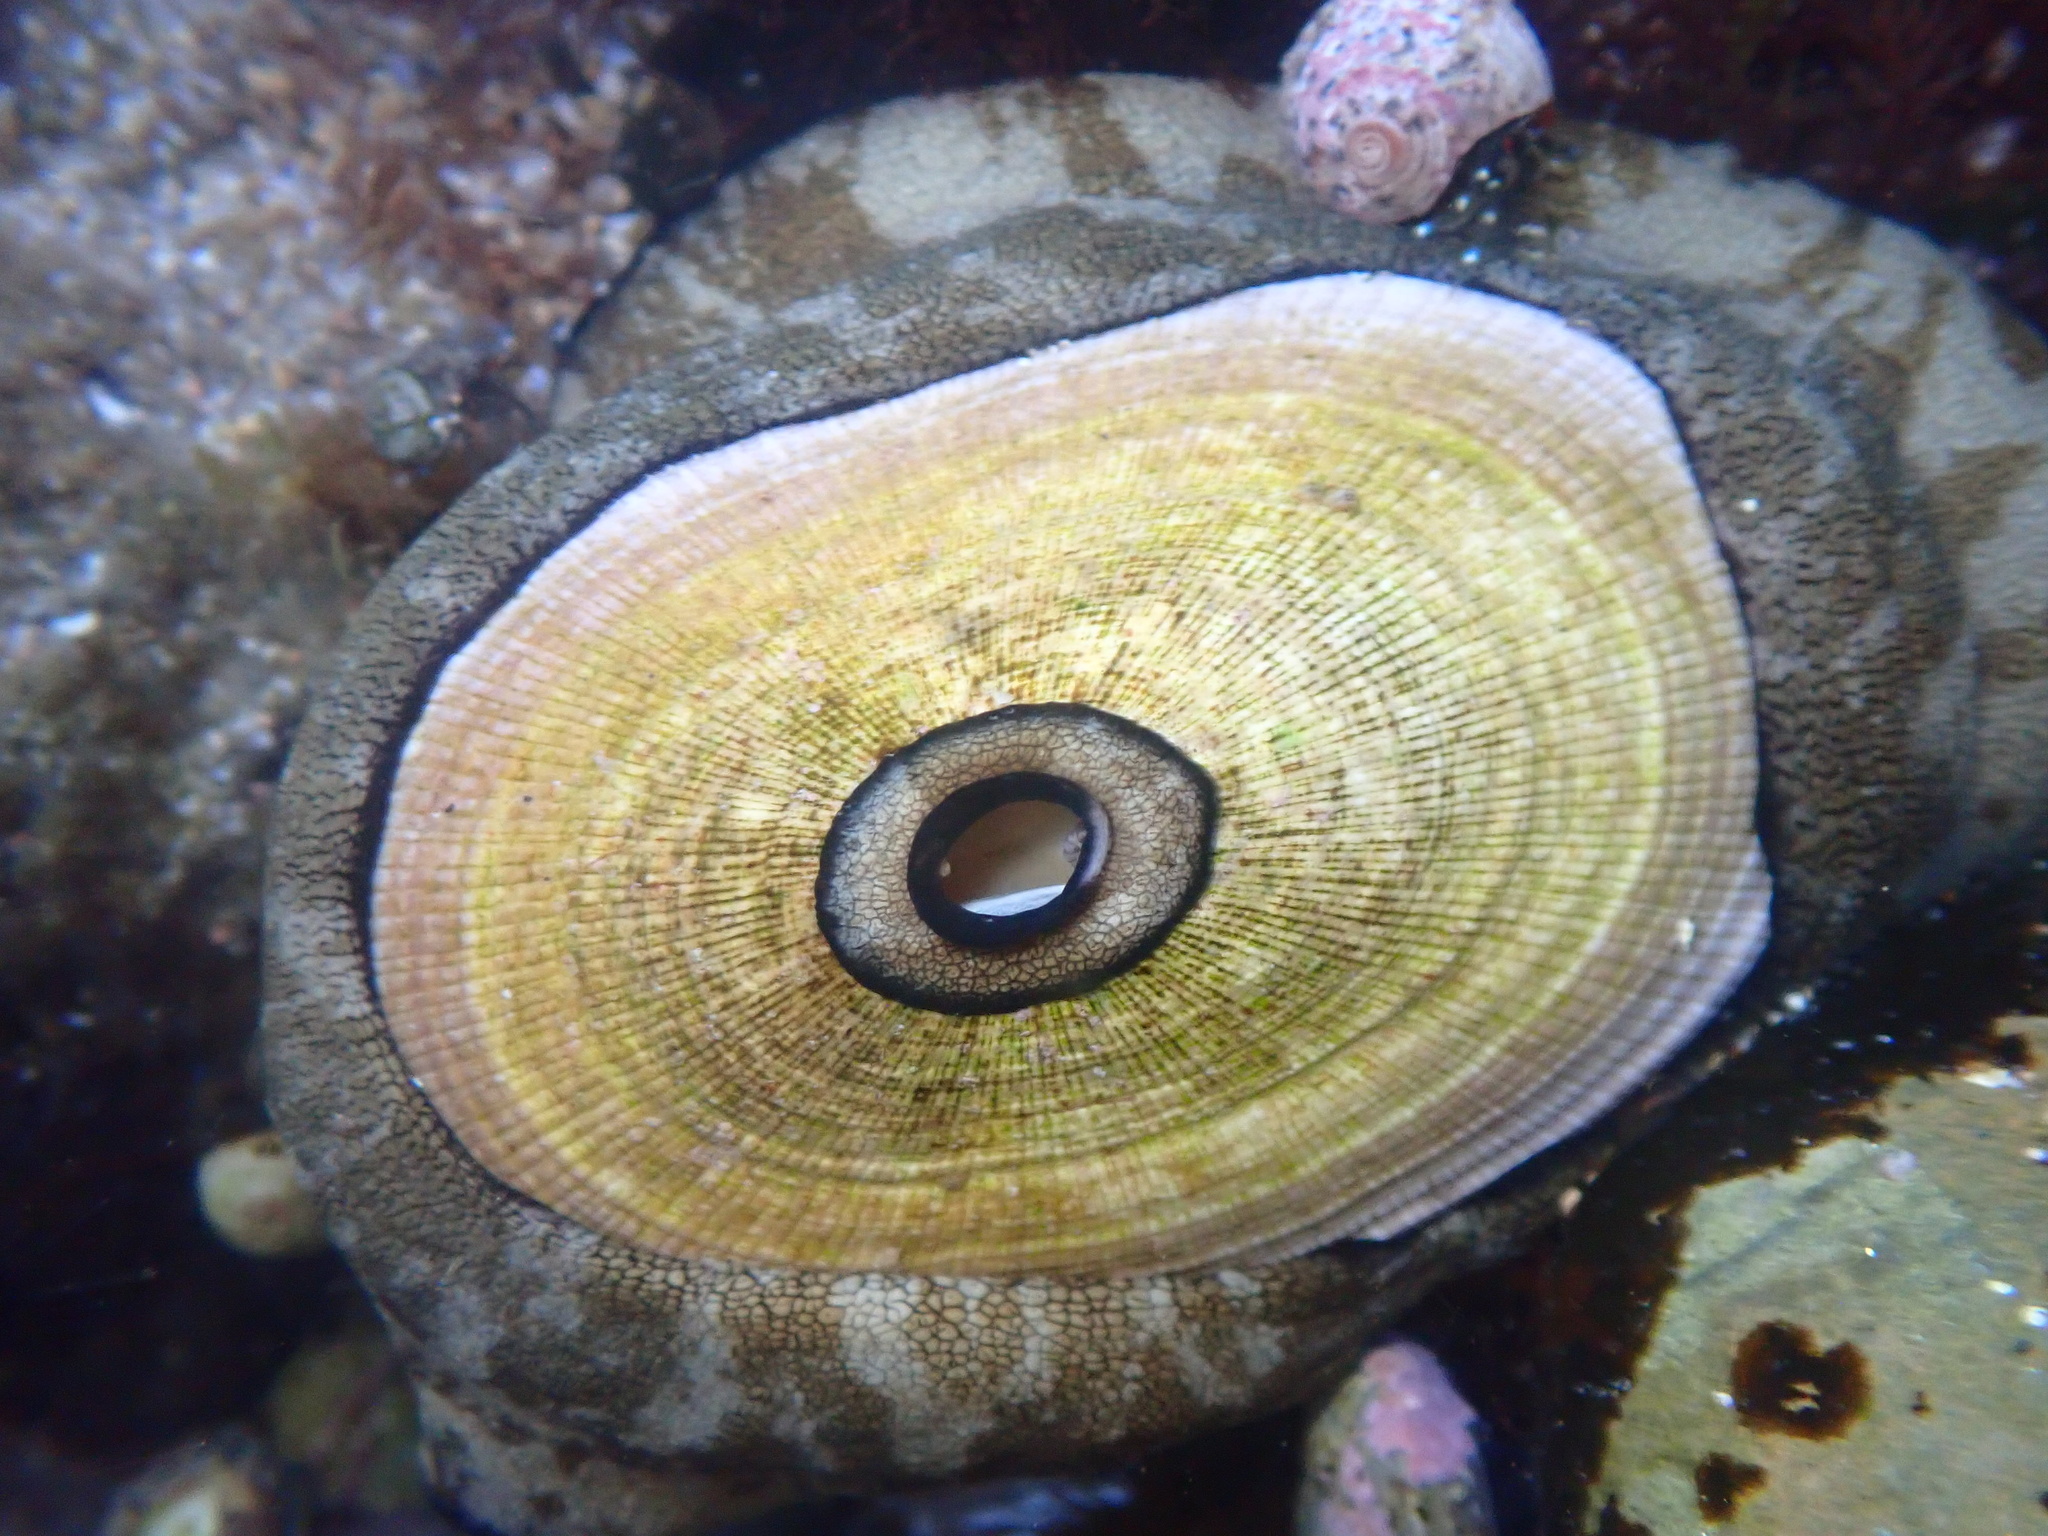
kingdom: Animalia
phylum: Mollusca
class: Gastropoda
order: Lepetellida
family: Fissurellidae
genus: Megathura
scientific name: Megathura crenulata
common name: Giant keyhole limpet
